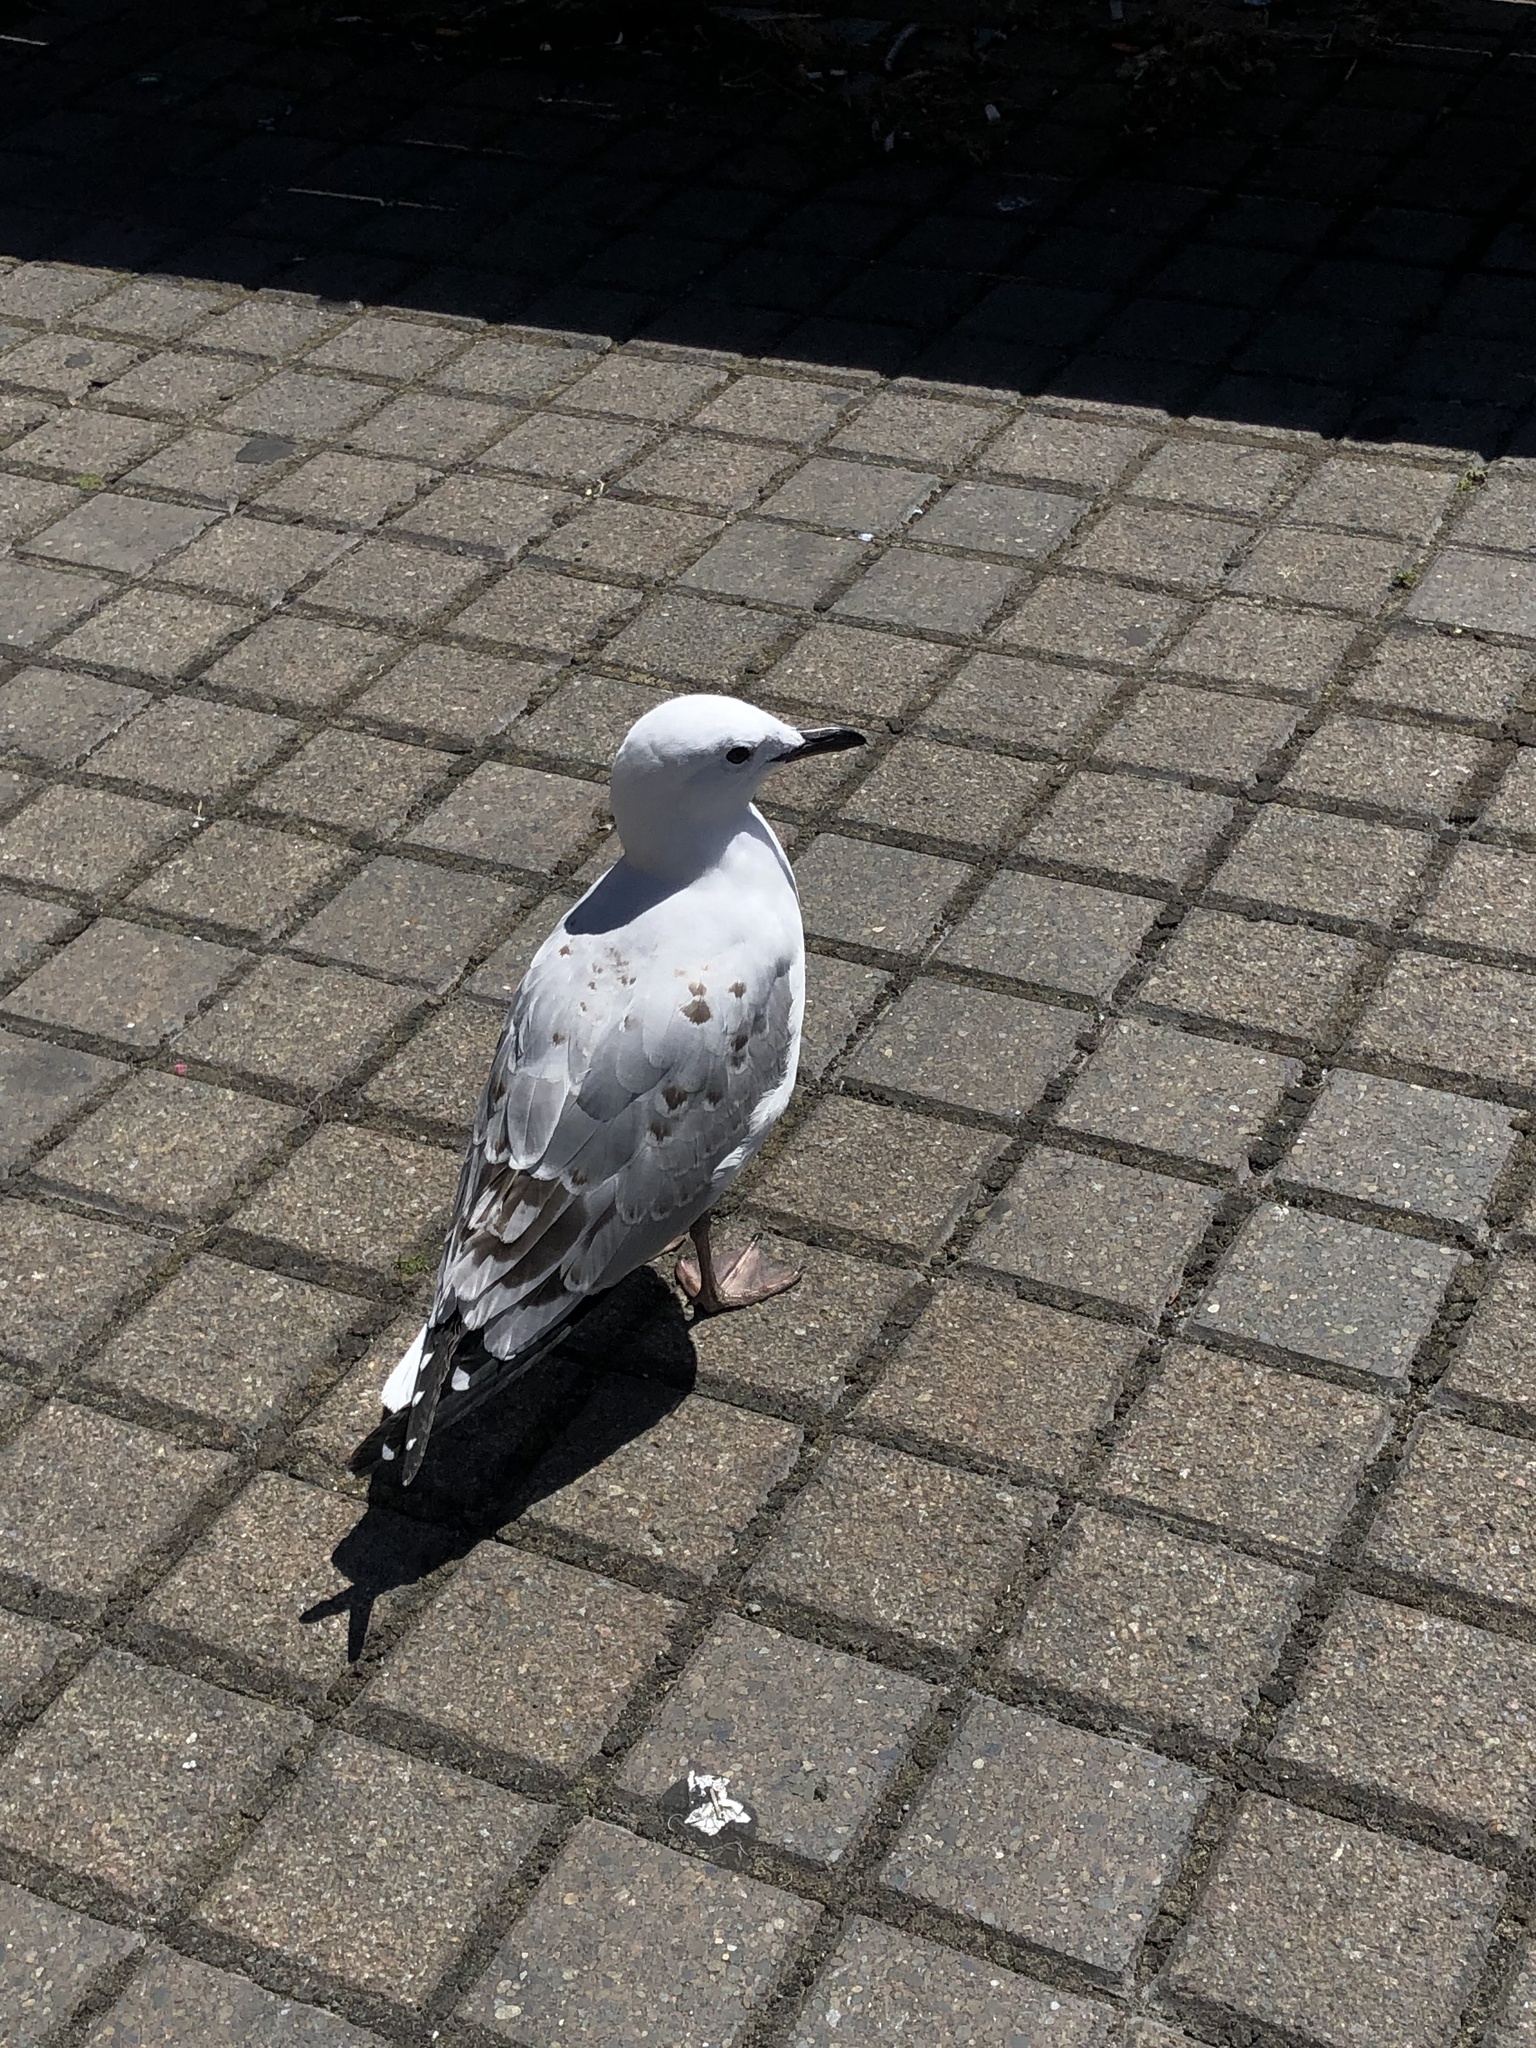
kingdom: Animalia
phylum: Chordata
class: Aves
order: Charadriiformes
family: Laridae
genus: Chroicocephalus
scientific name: Chroicocephalus novaehollandiae
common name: Silver gull
